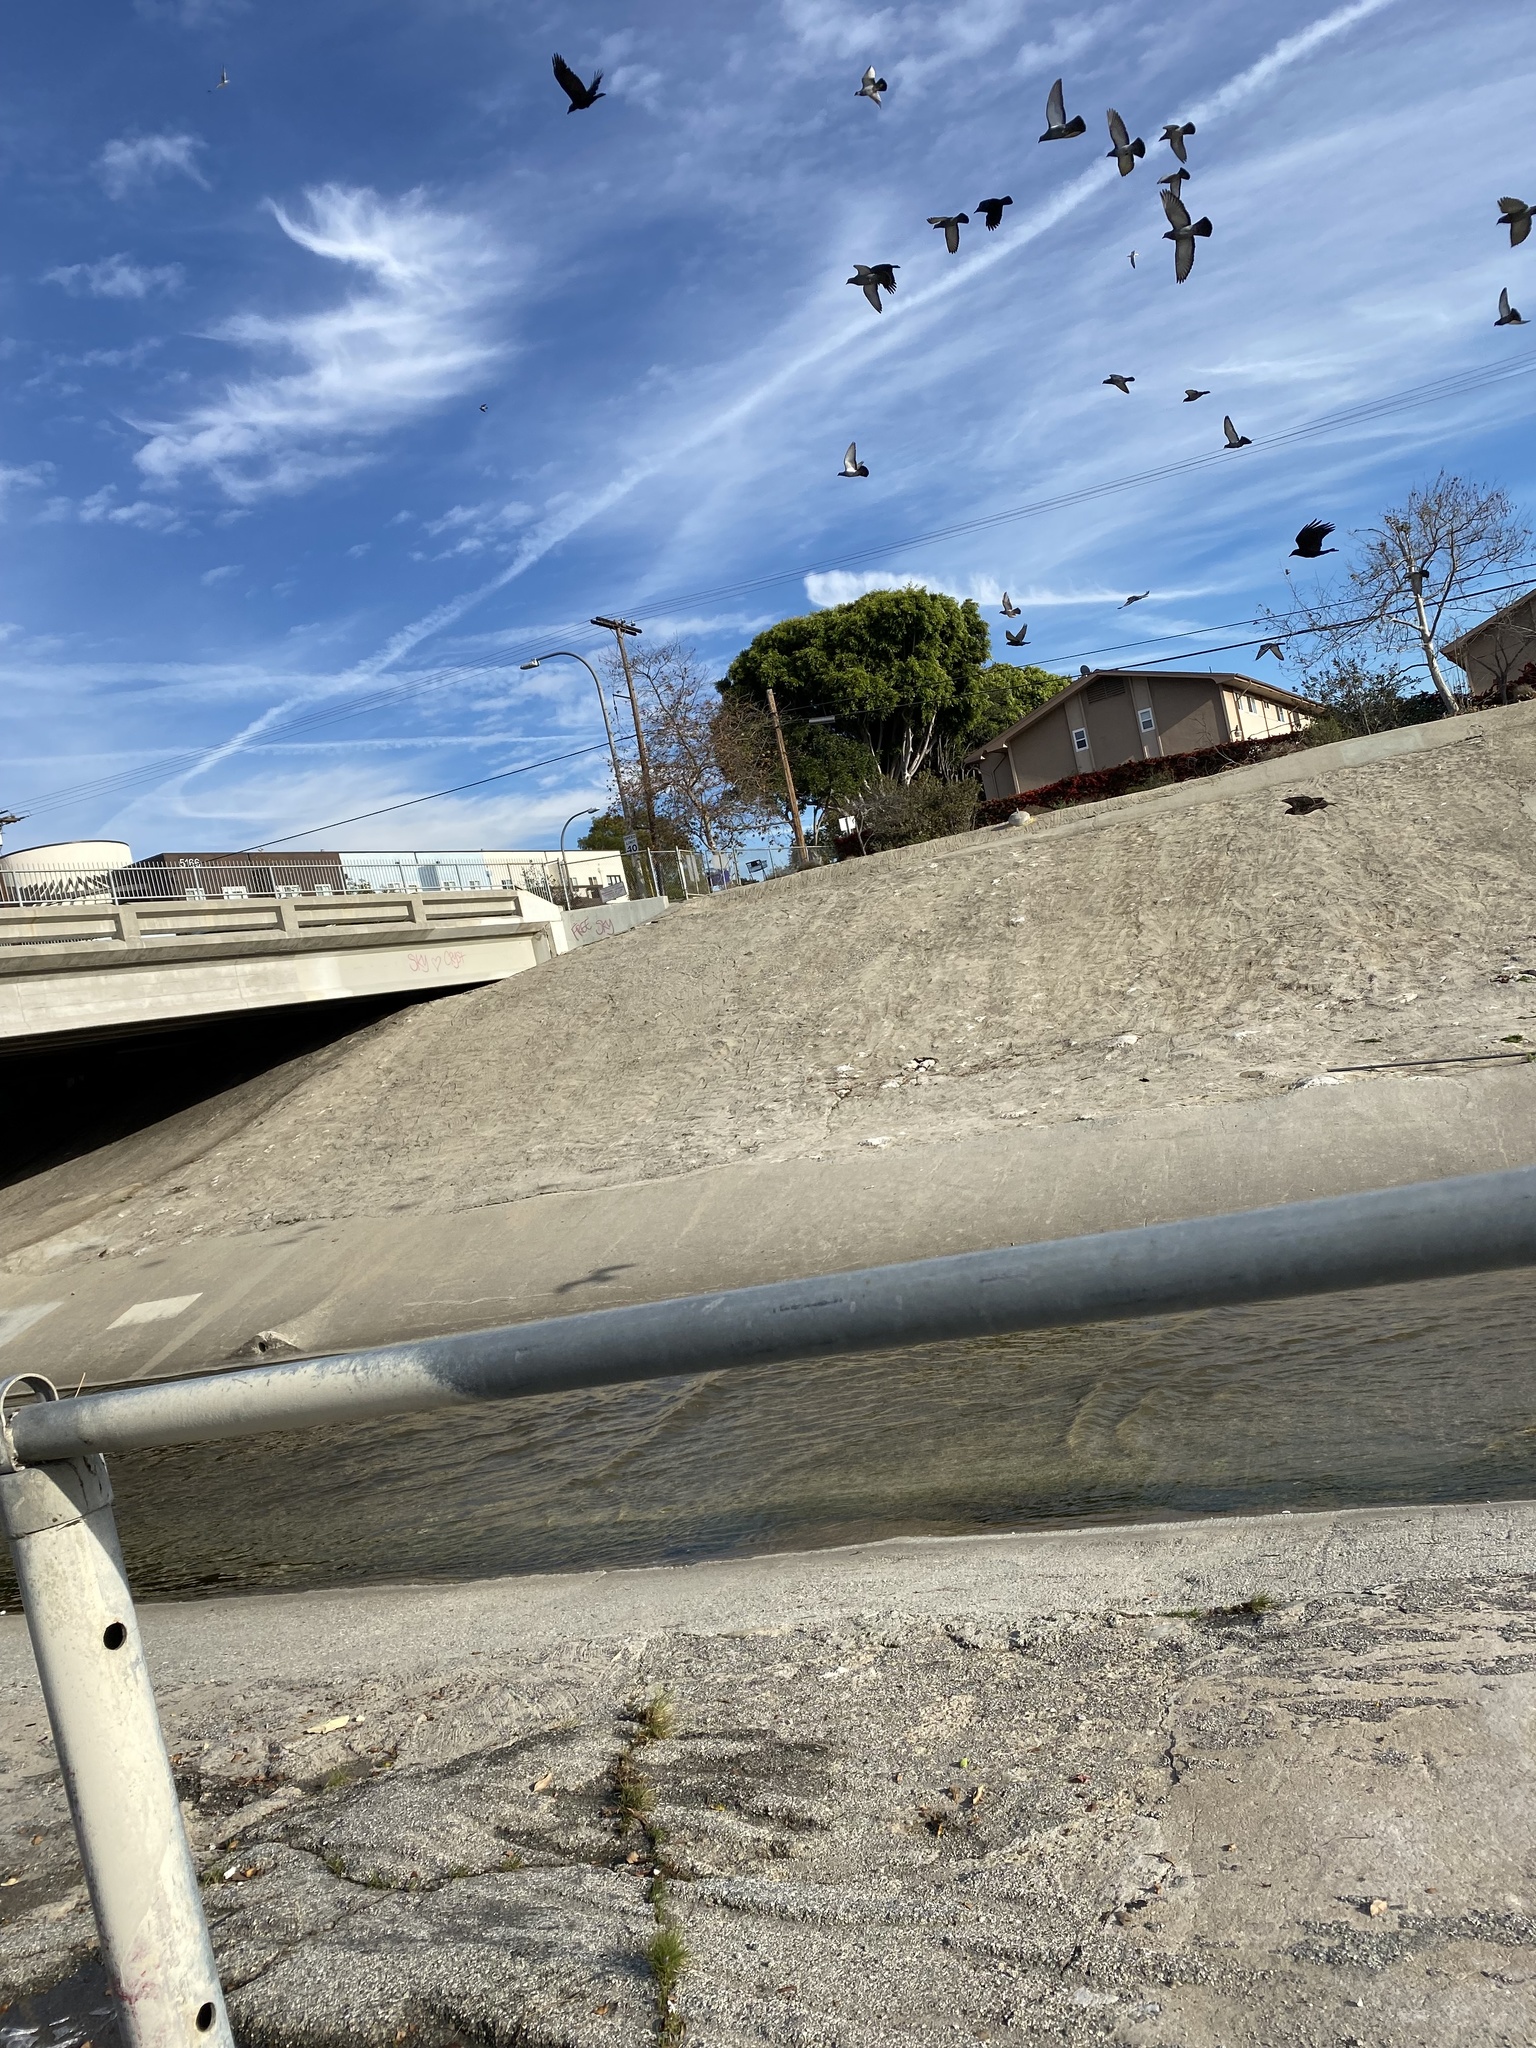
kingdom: Animalia
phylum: Chordata
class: Aves
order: Accipitriformes
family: Accipitridae
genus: Buteo
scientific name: Buteo jamaicensis
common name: Red-tailed hawk
